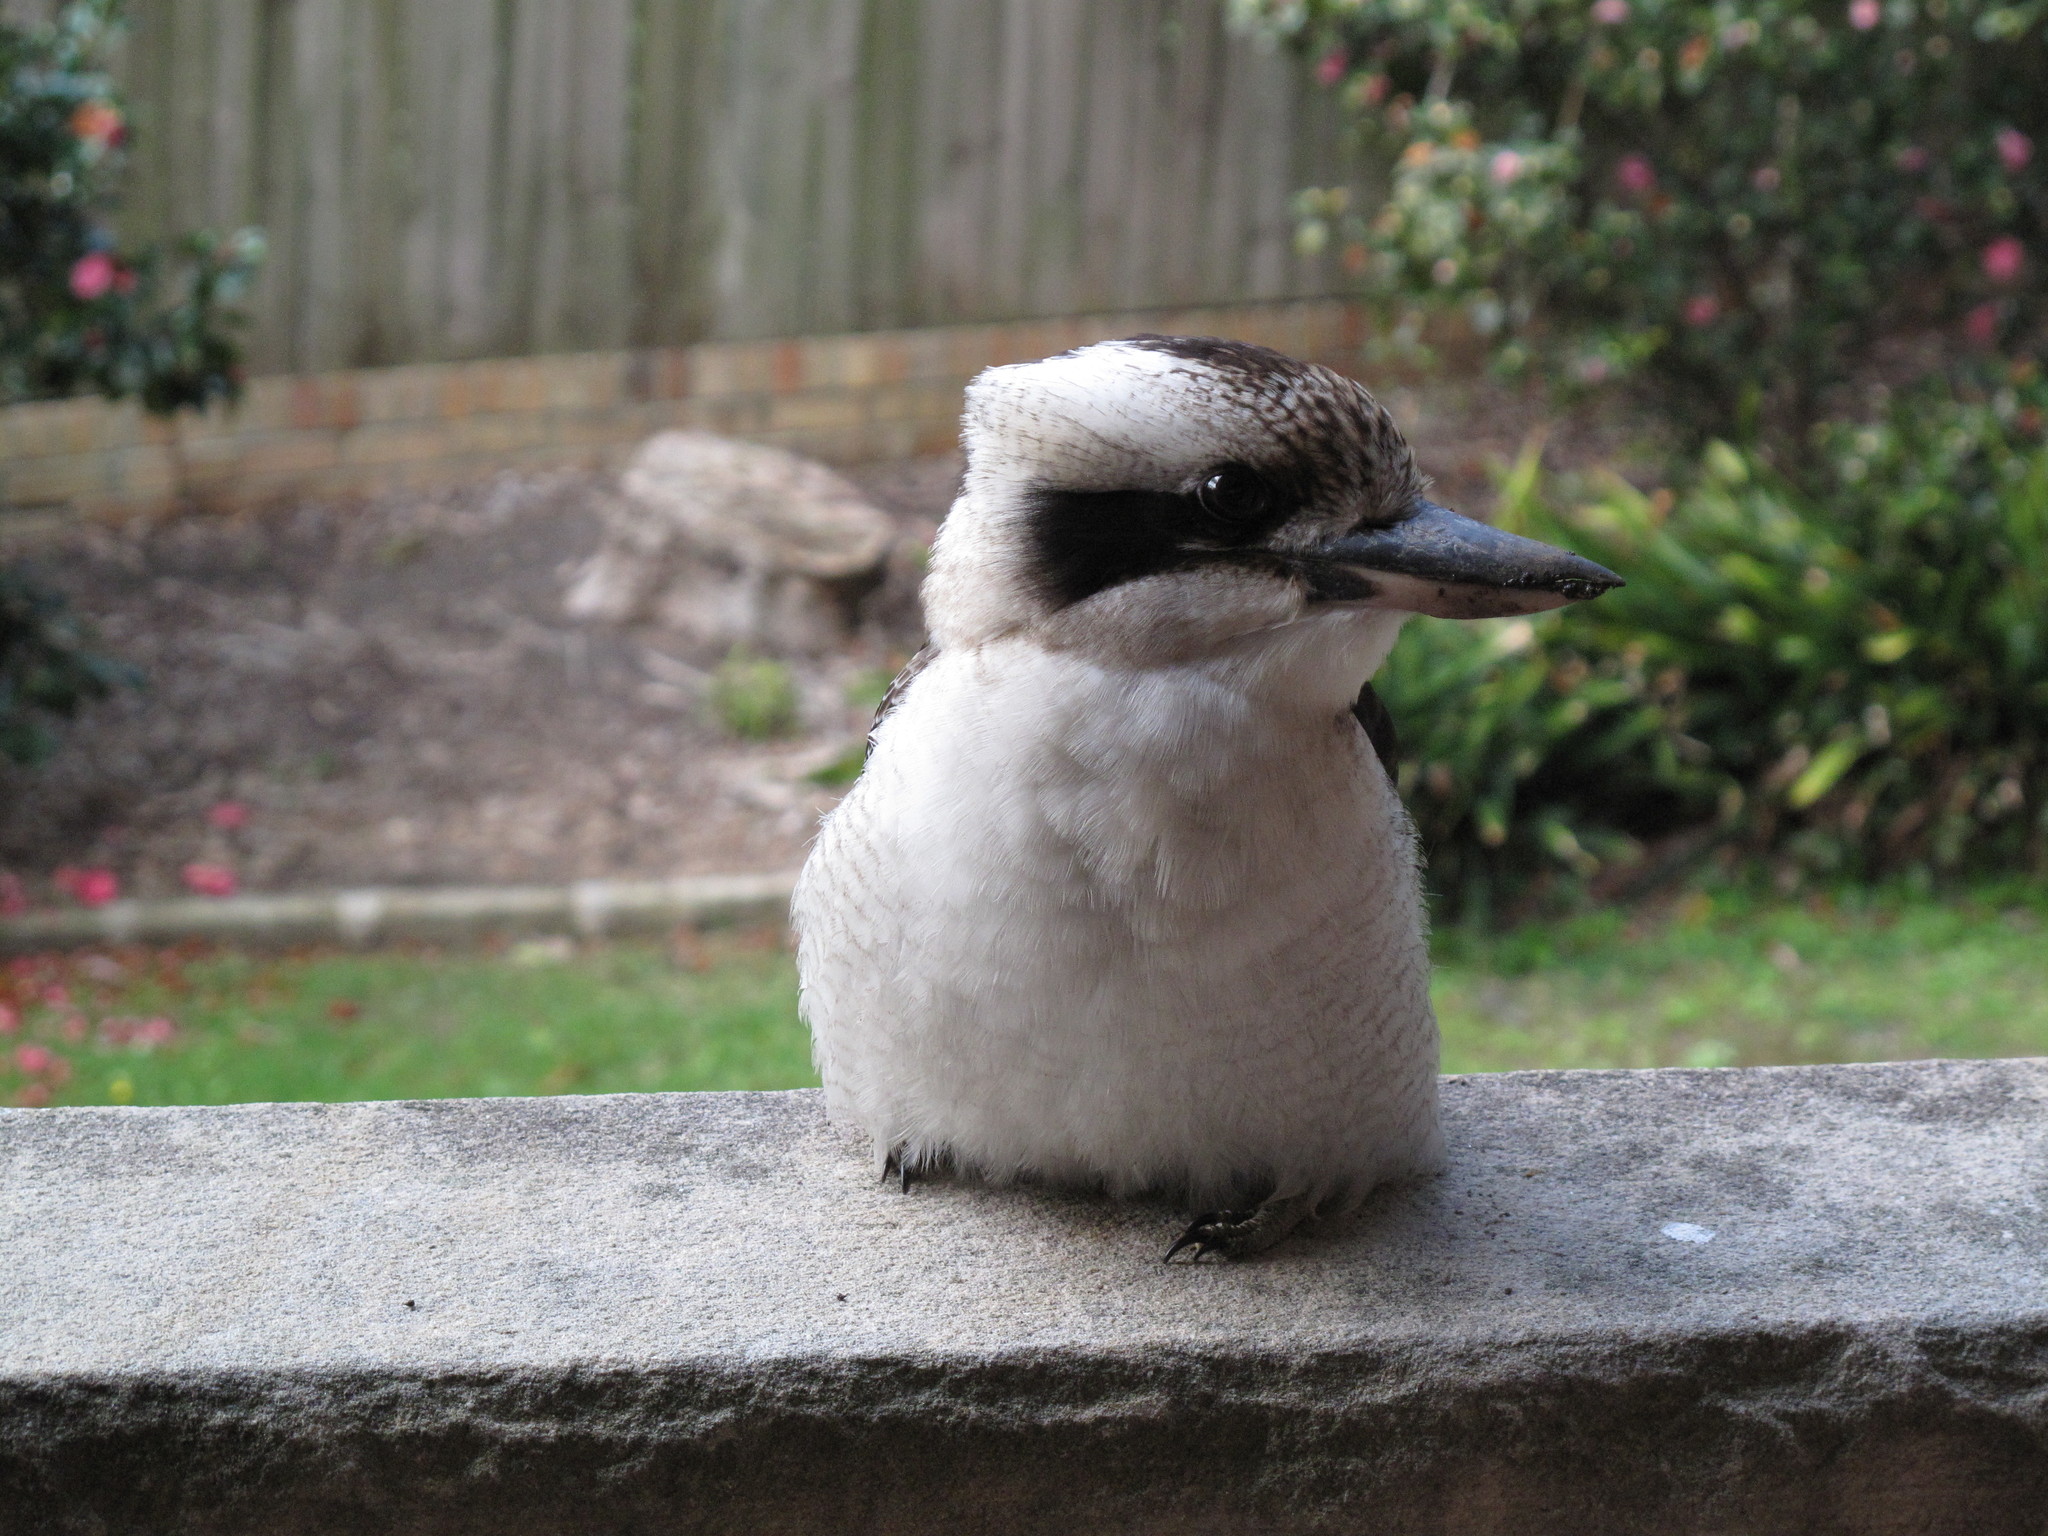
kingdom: Animalia
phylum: Chordata
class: Aves
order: Coraciiformes
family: Alcedinidae
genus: Dacelo
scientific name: Dacelo novaeguineae
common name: Laughing kookaburra
